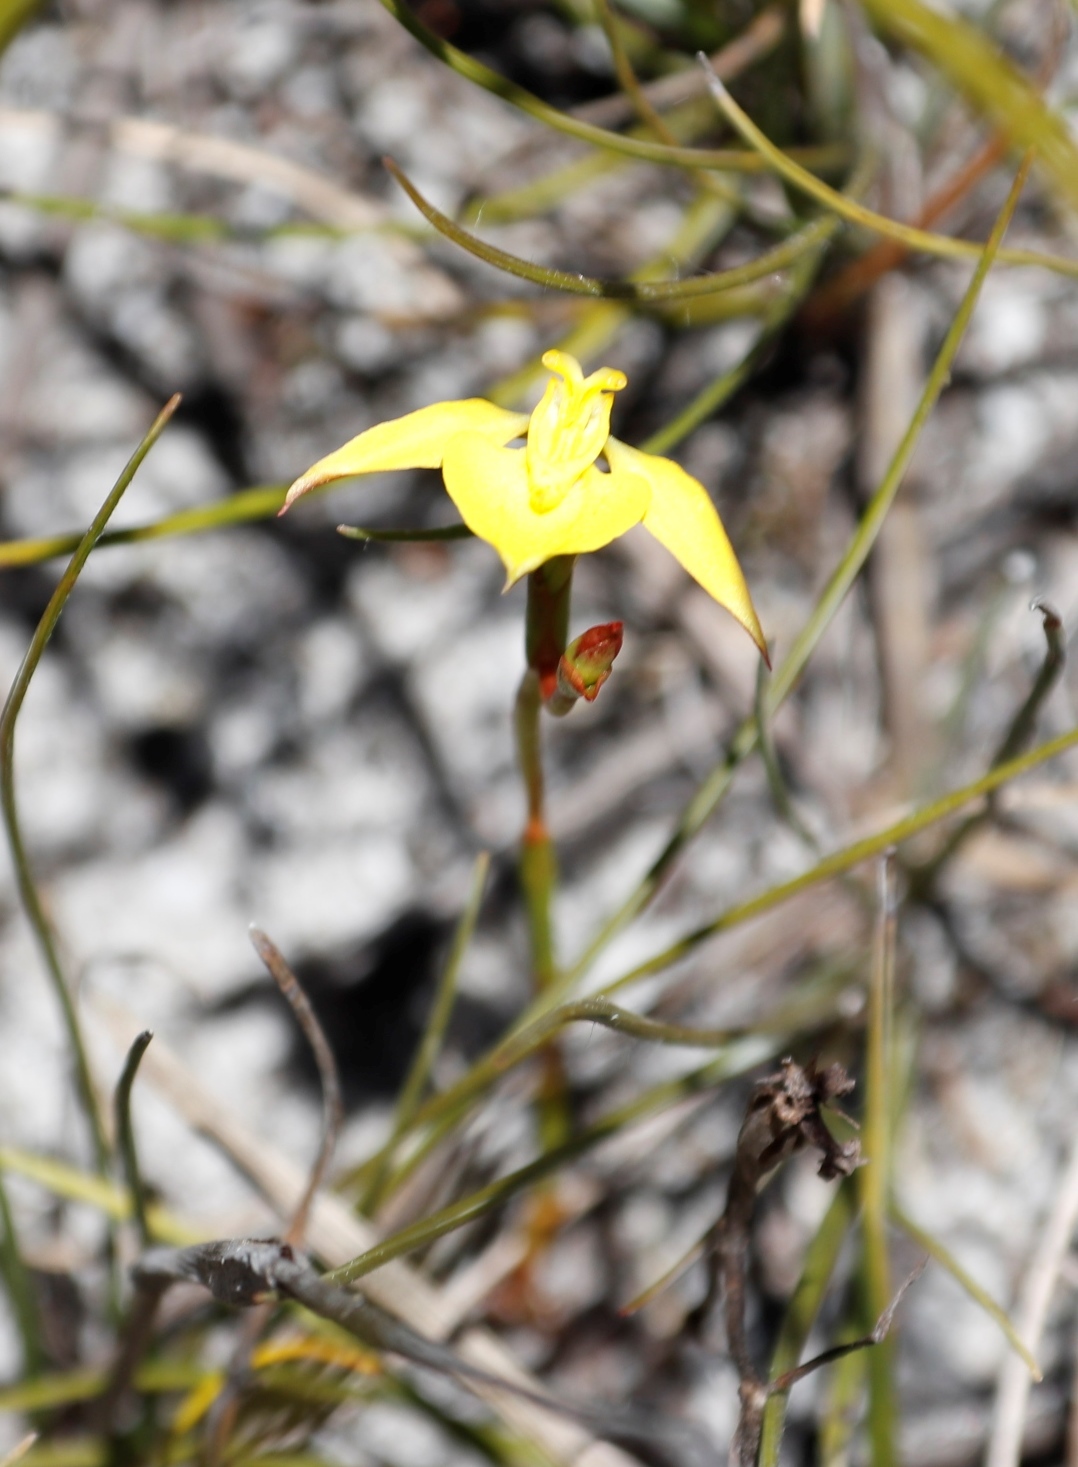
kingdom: Plantae
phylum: Tracheophyta
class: Liliopsida
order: Asparagales
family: Orchidaceae
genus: Disa
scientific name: Disa tenuifolia
